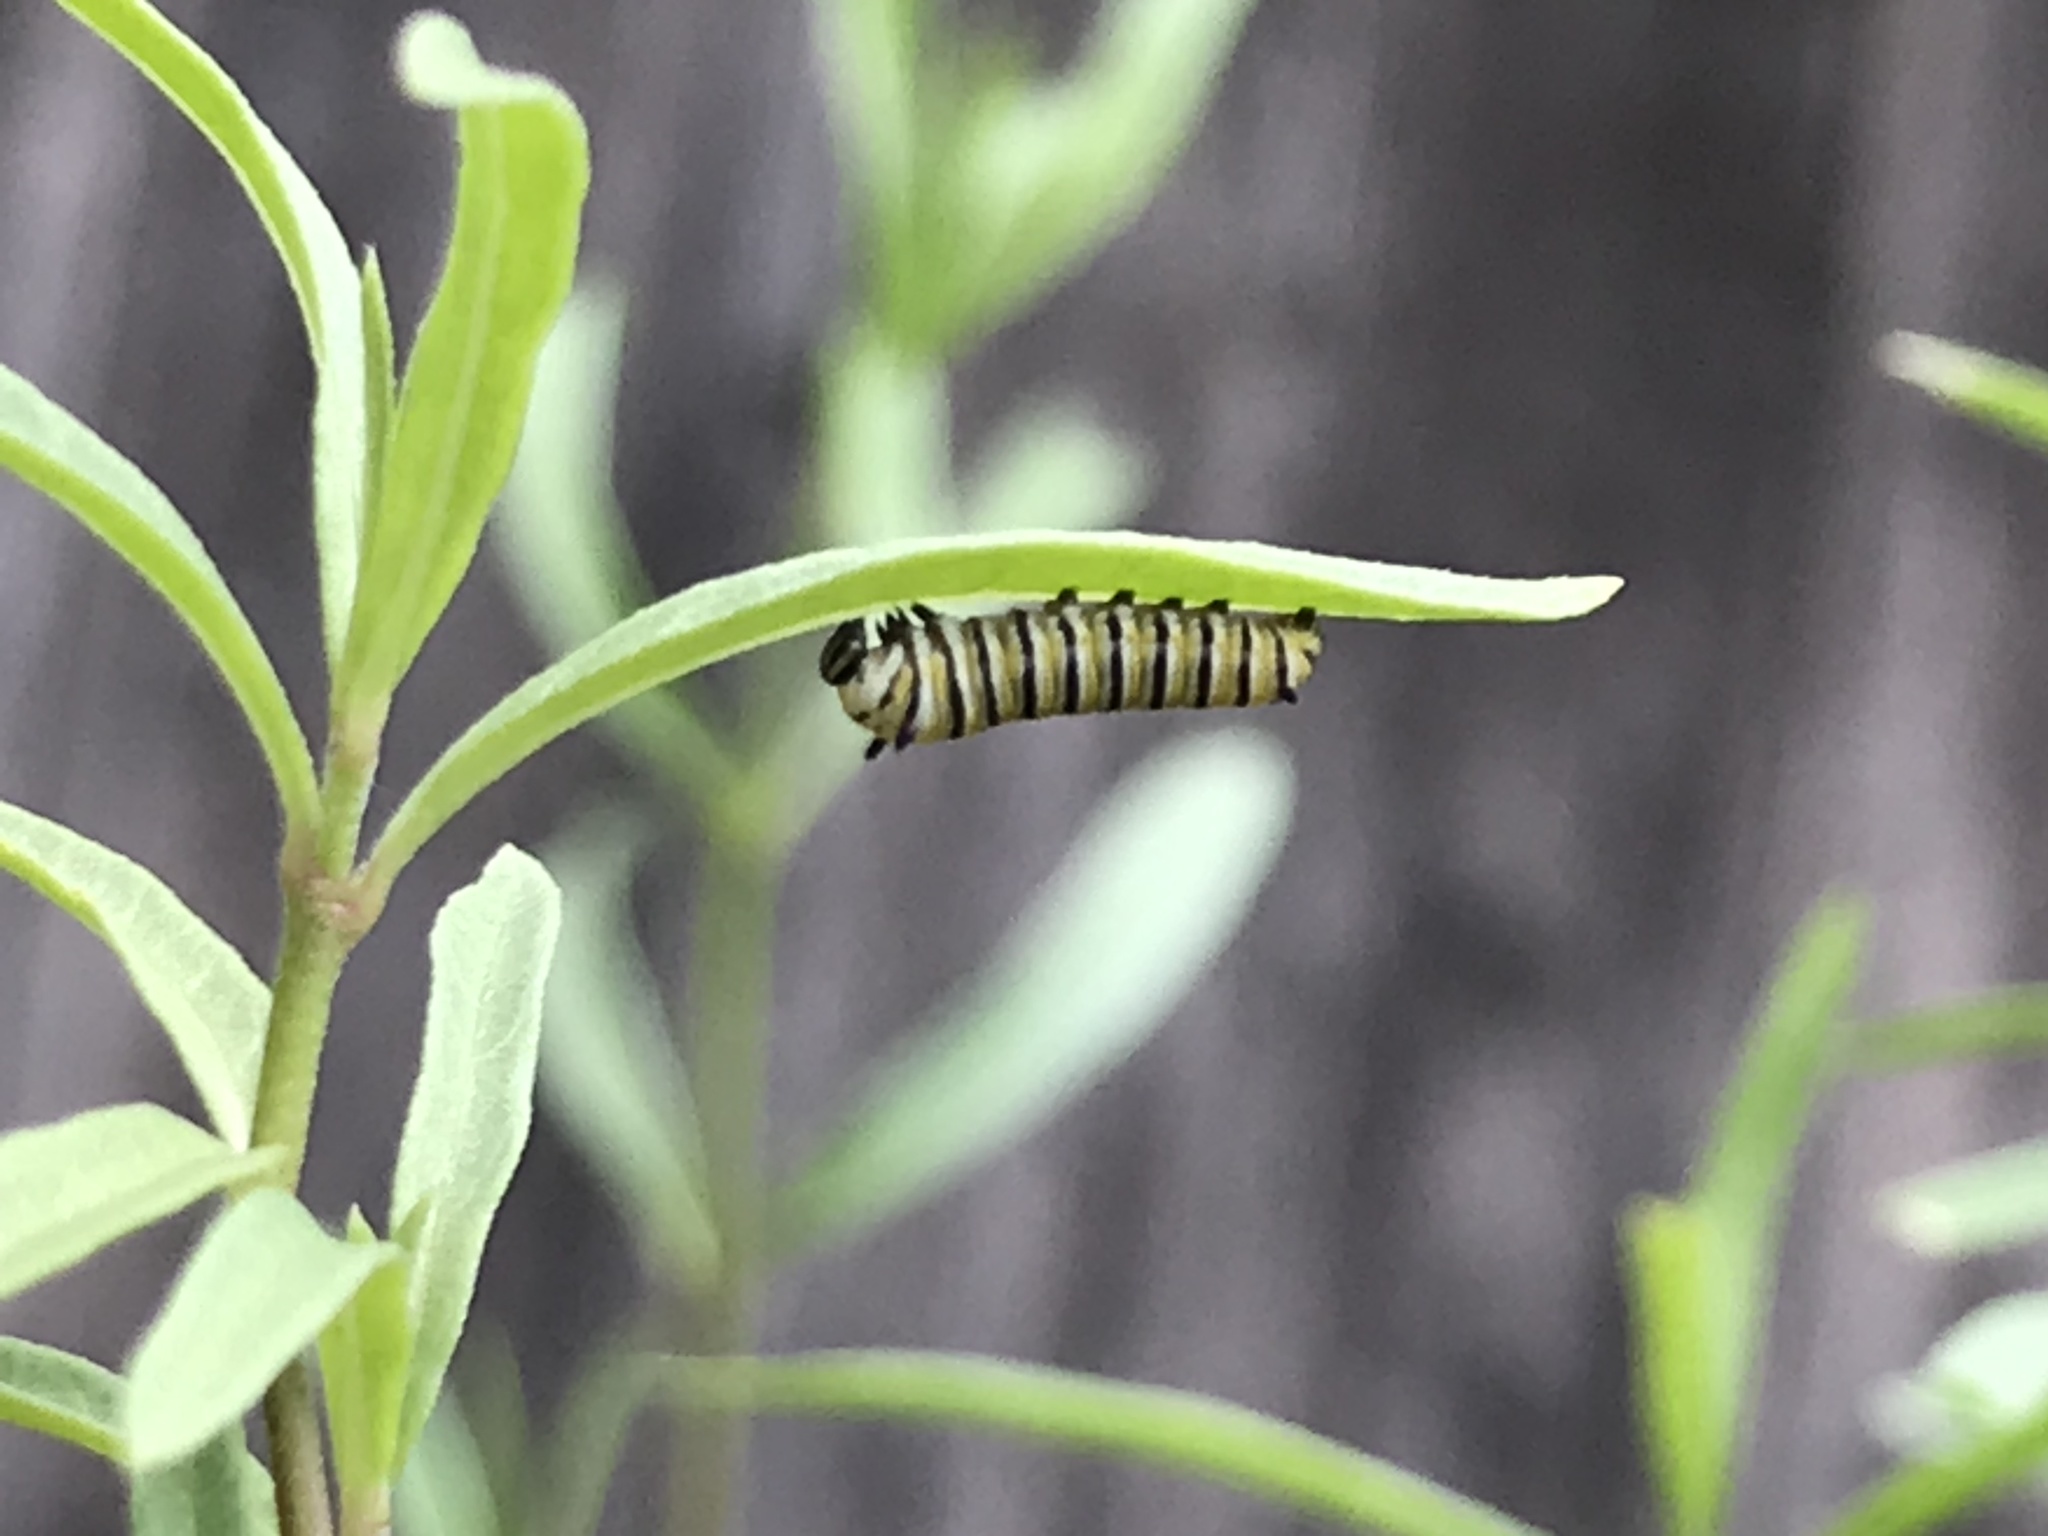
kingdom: Animalia
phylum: Arthropoda
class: Insecta
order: Lepidoptera
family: Nymphalidae
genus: Danaus
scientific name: Danaus plexippus
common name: Monarch
